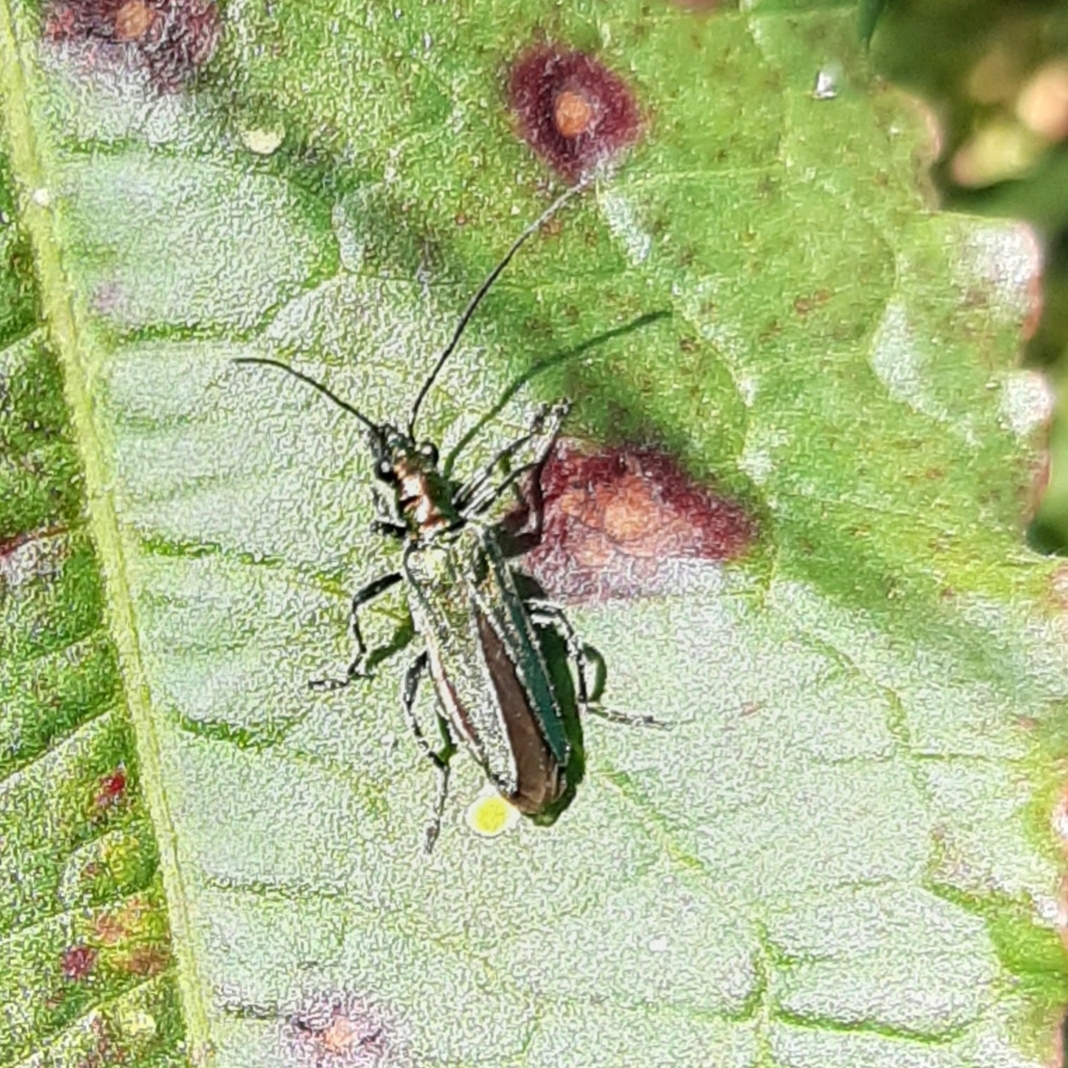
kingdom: Animalia
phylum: Arthropoda
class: Insecta
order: Coleoptera
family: Oedemeridae
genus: Oedemera
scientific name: Oedemera nobilis
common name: Swollen-thighed beetle
